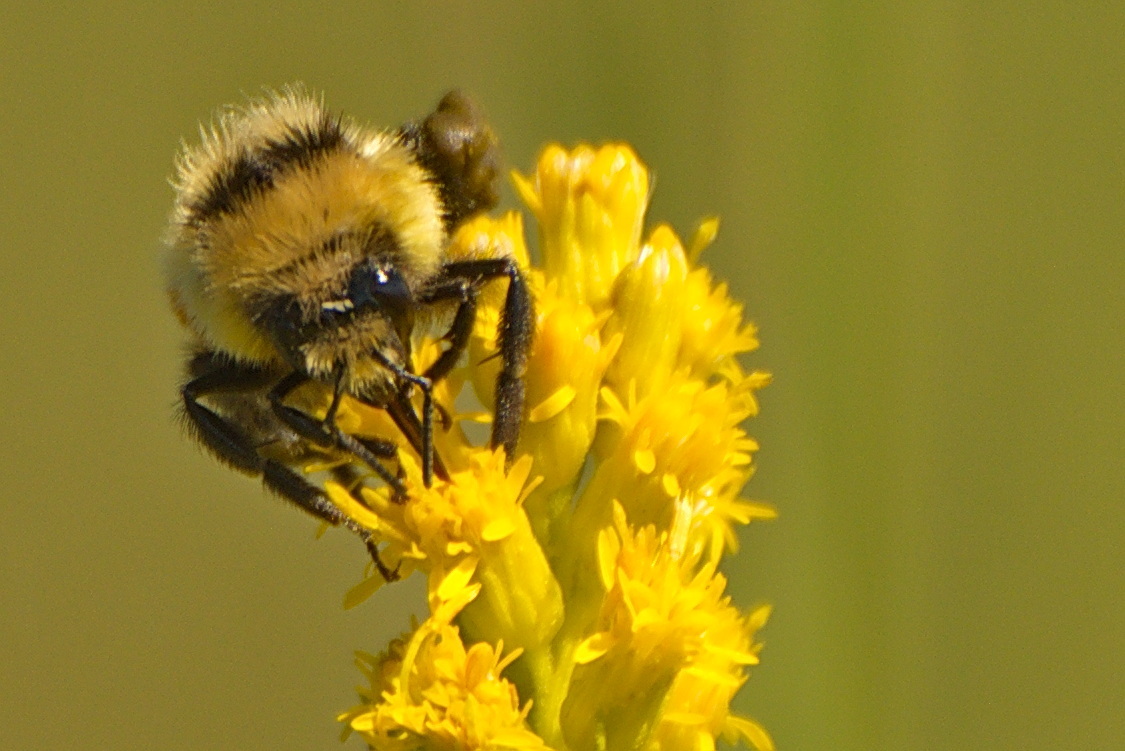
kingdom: Animalia
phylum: Arthropoda
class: Insecta
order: Hymenoptera
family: Apidae
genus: Bombus
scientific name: Bombus huntii
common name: Hunt bumble bee
